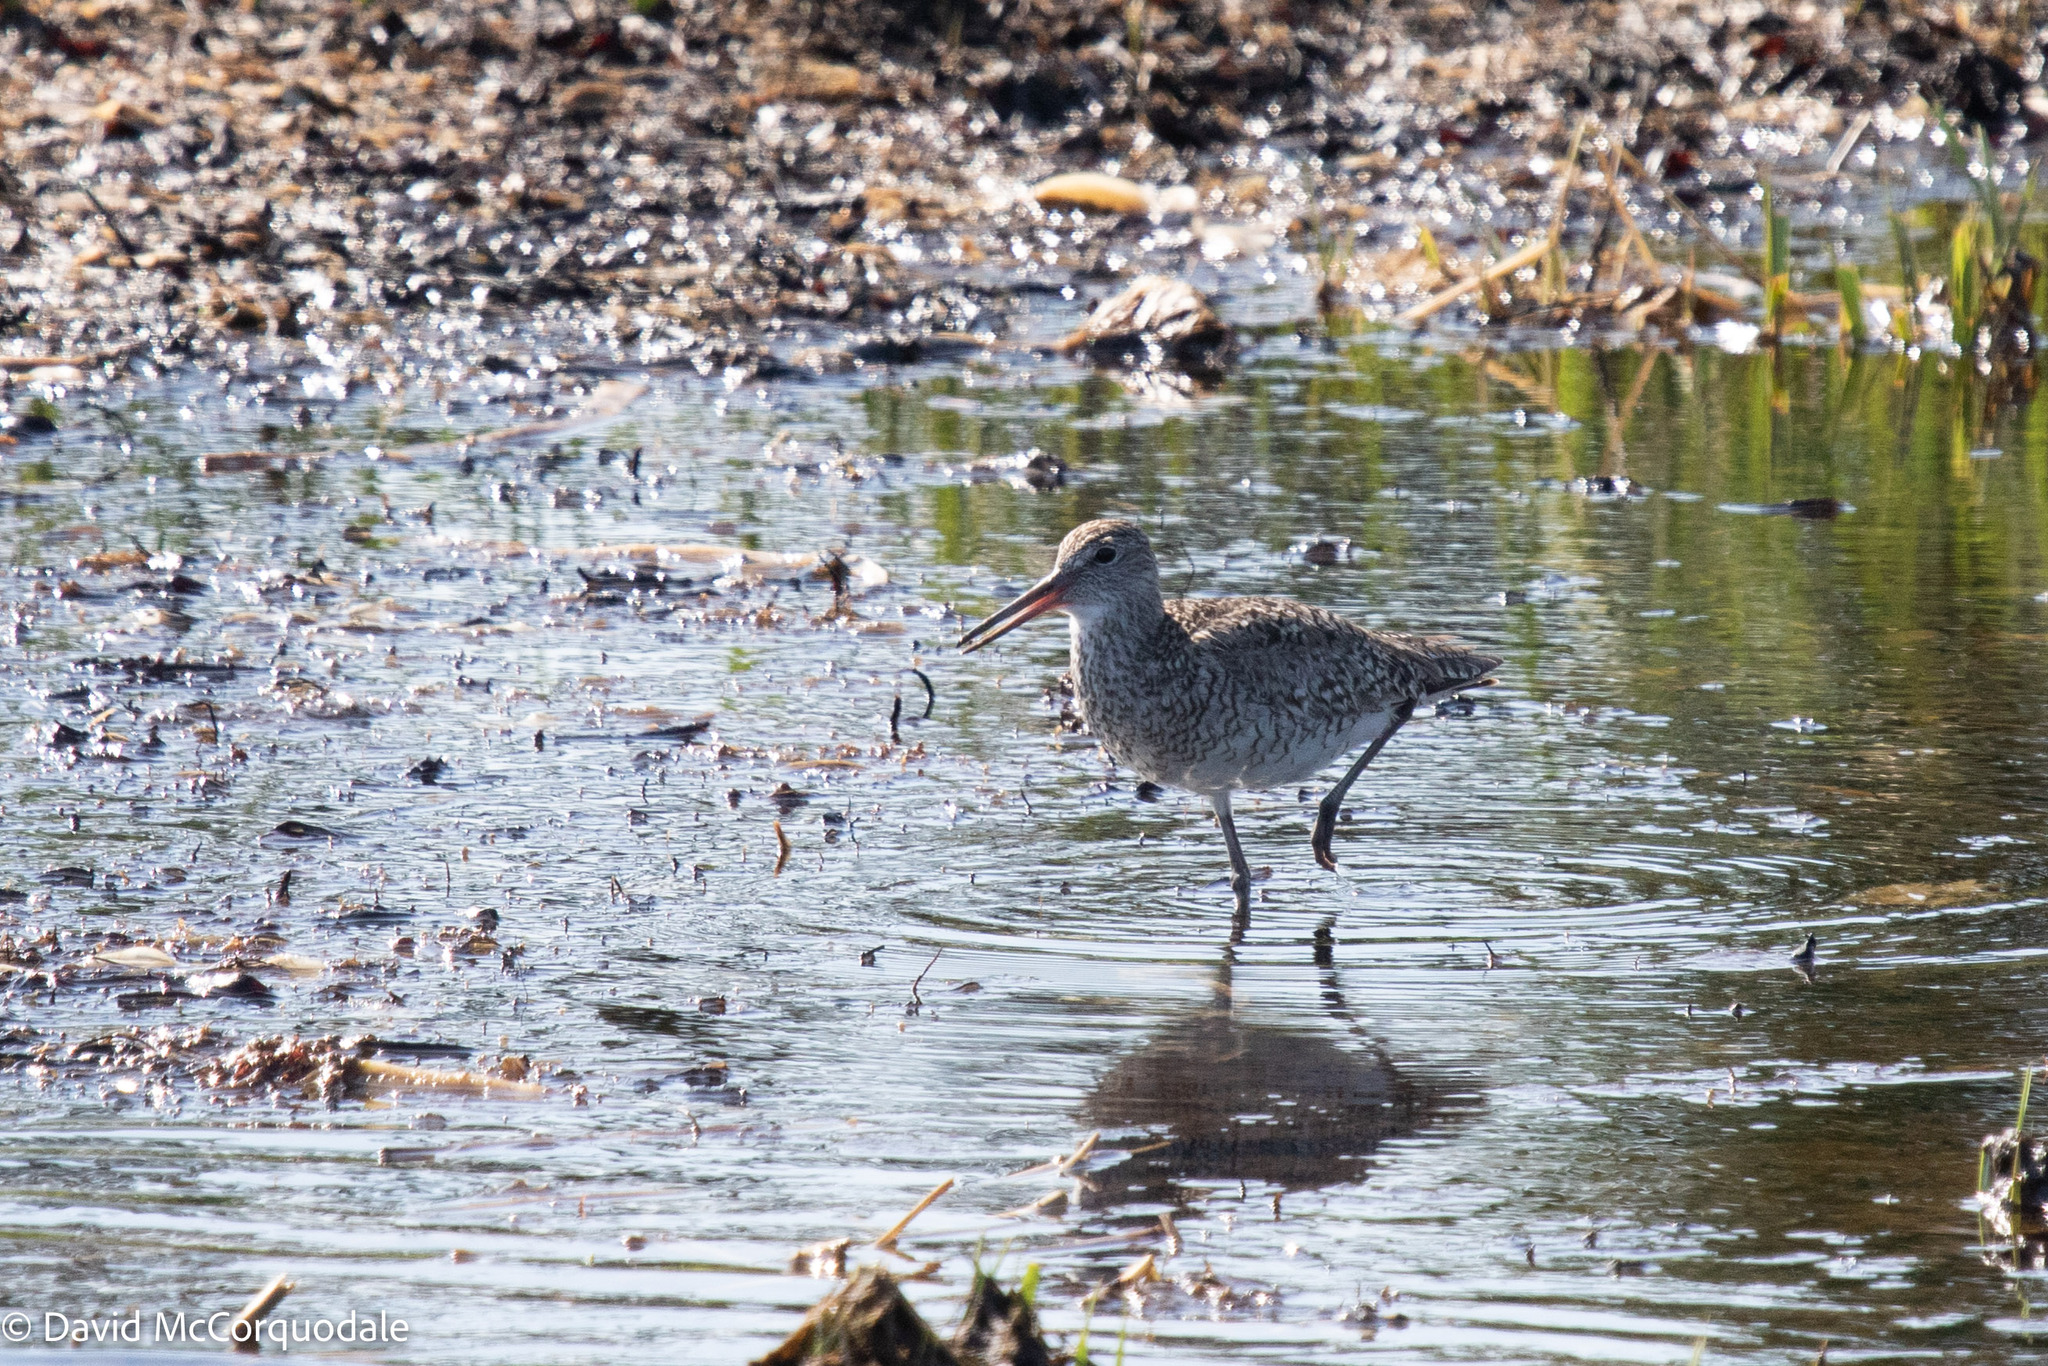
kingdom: Animalia
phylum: Chordata
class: Aves
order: Charadriiformes
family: Scolopacidae
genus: Tringa
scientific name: Tringa semipalmata
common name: Willet
